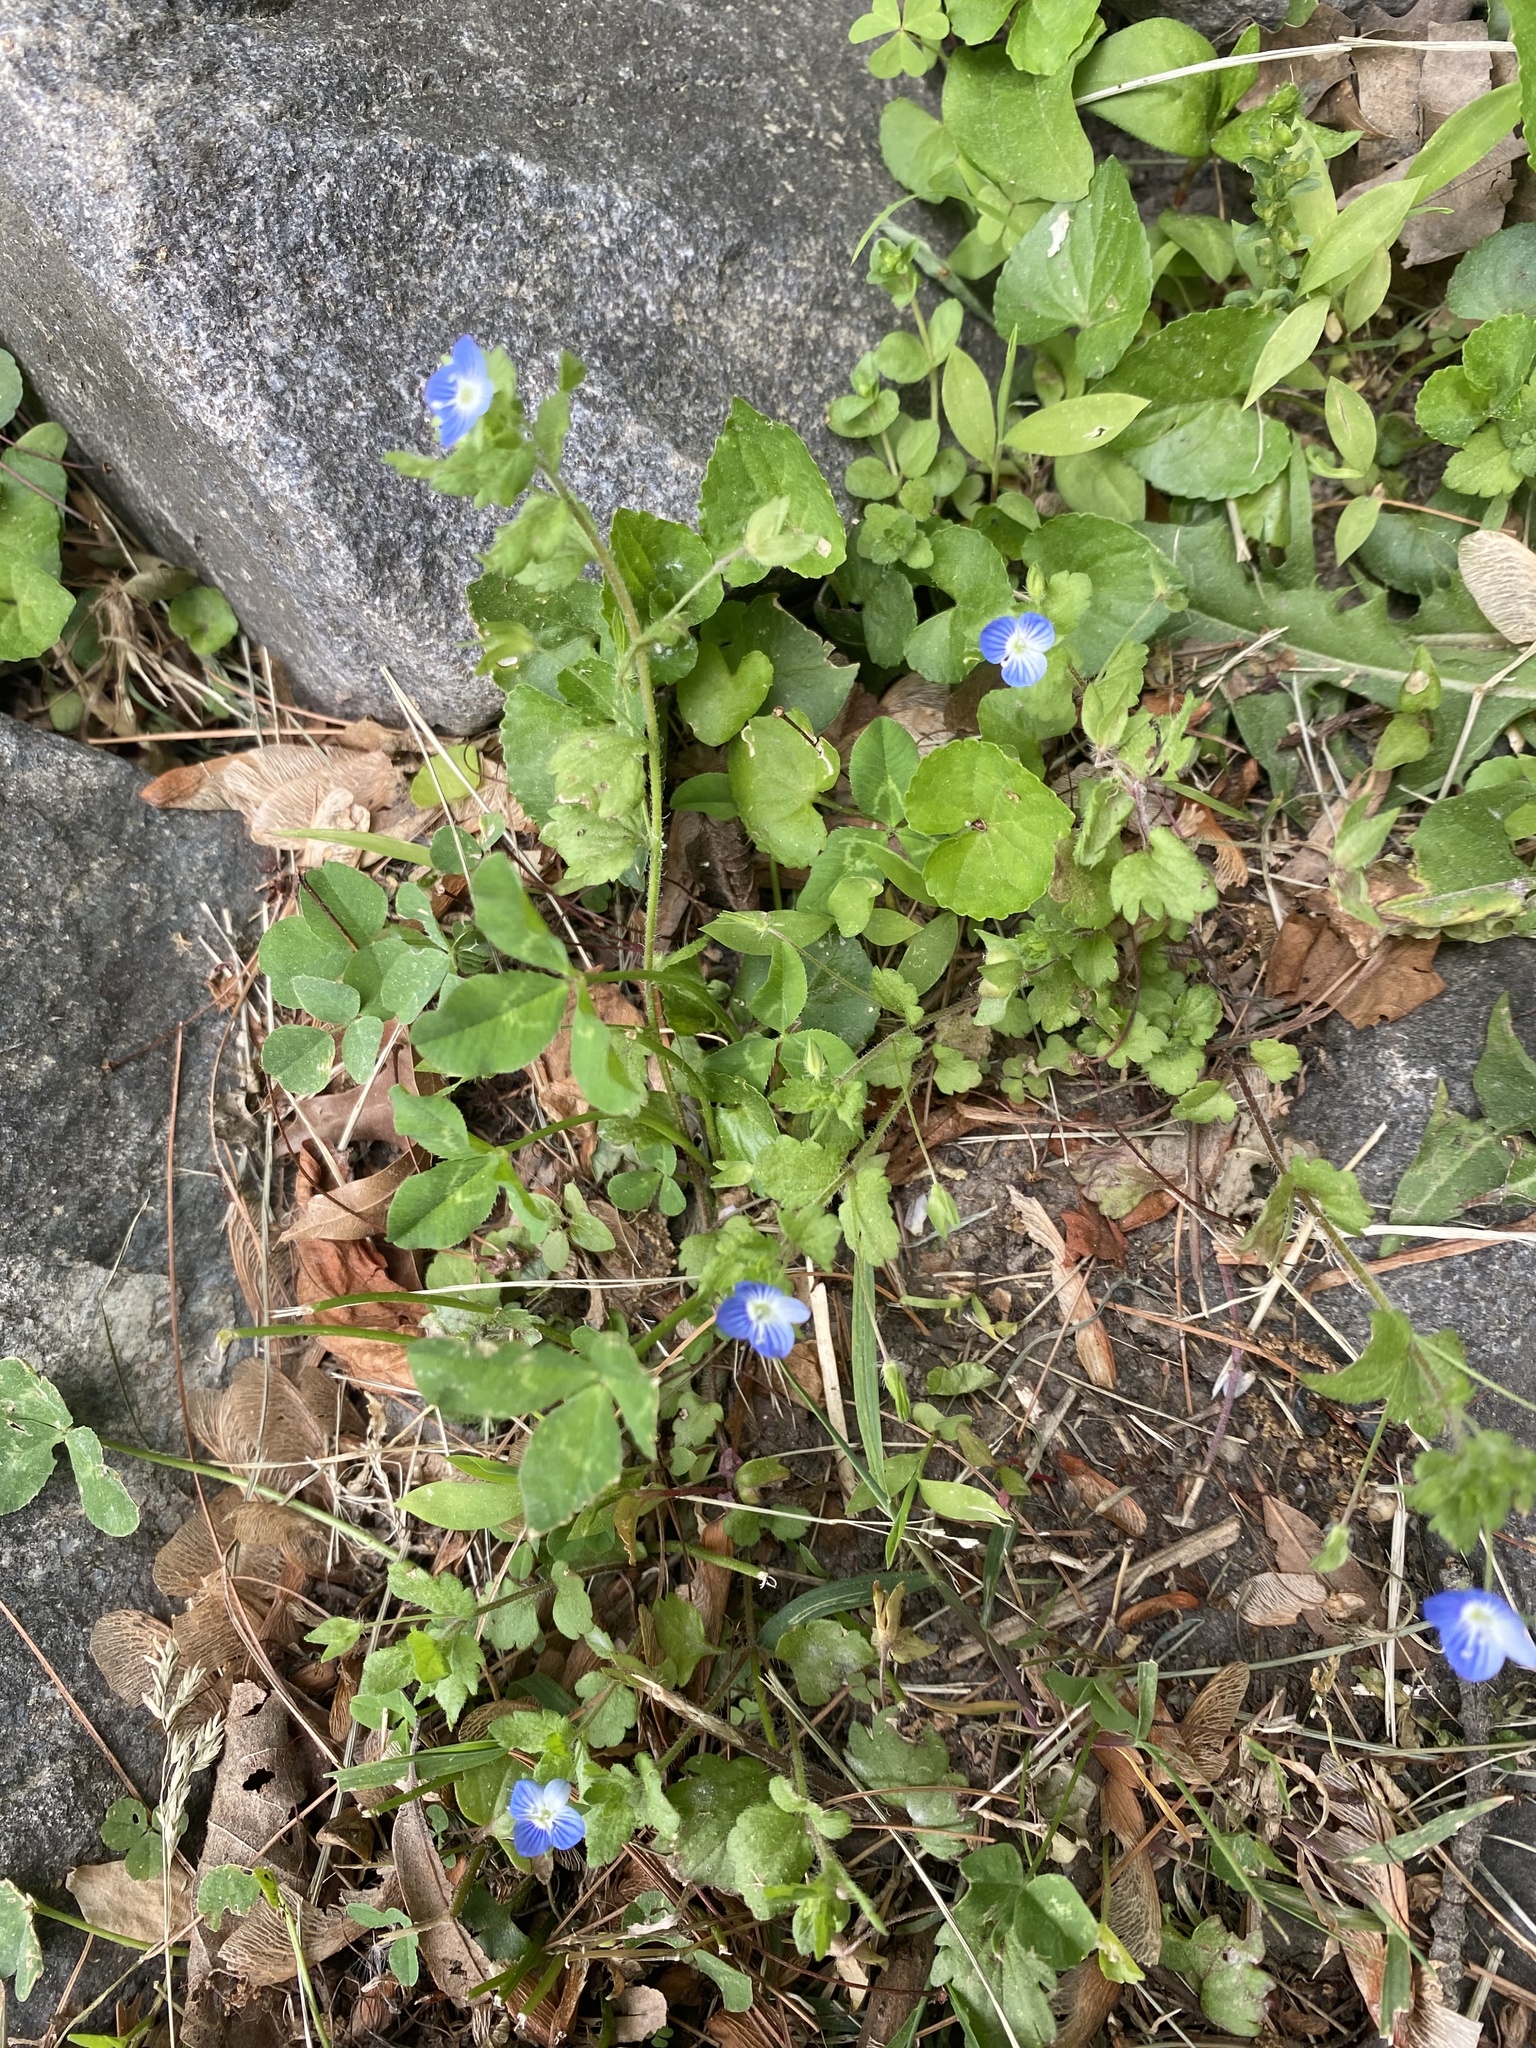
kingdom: Plantae
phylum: Tracheophyta
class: Magnoliopsida
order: Lamiales
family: Plantaginaceae
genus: Veronica
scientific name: Veronica persica
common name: Common field-speedwell
